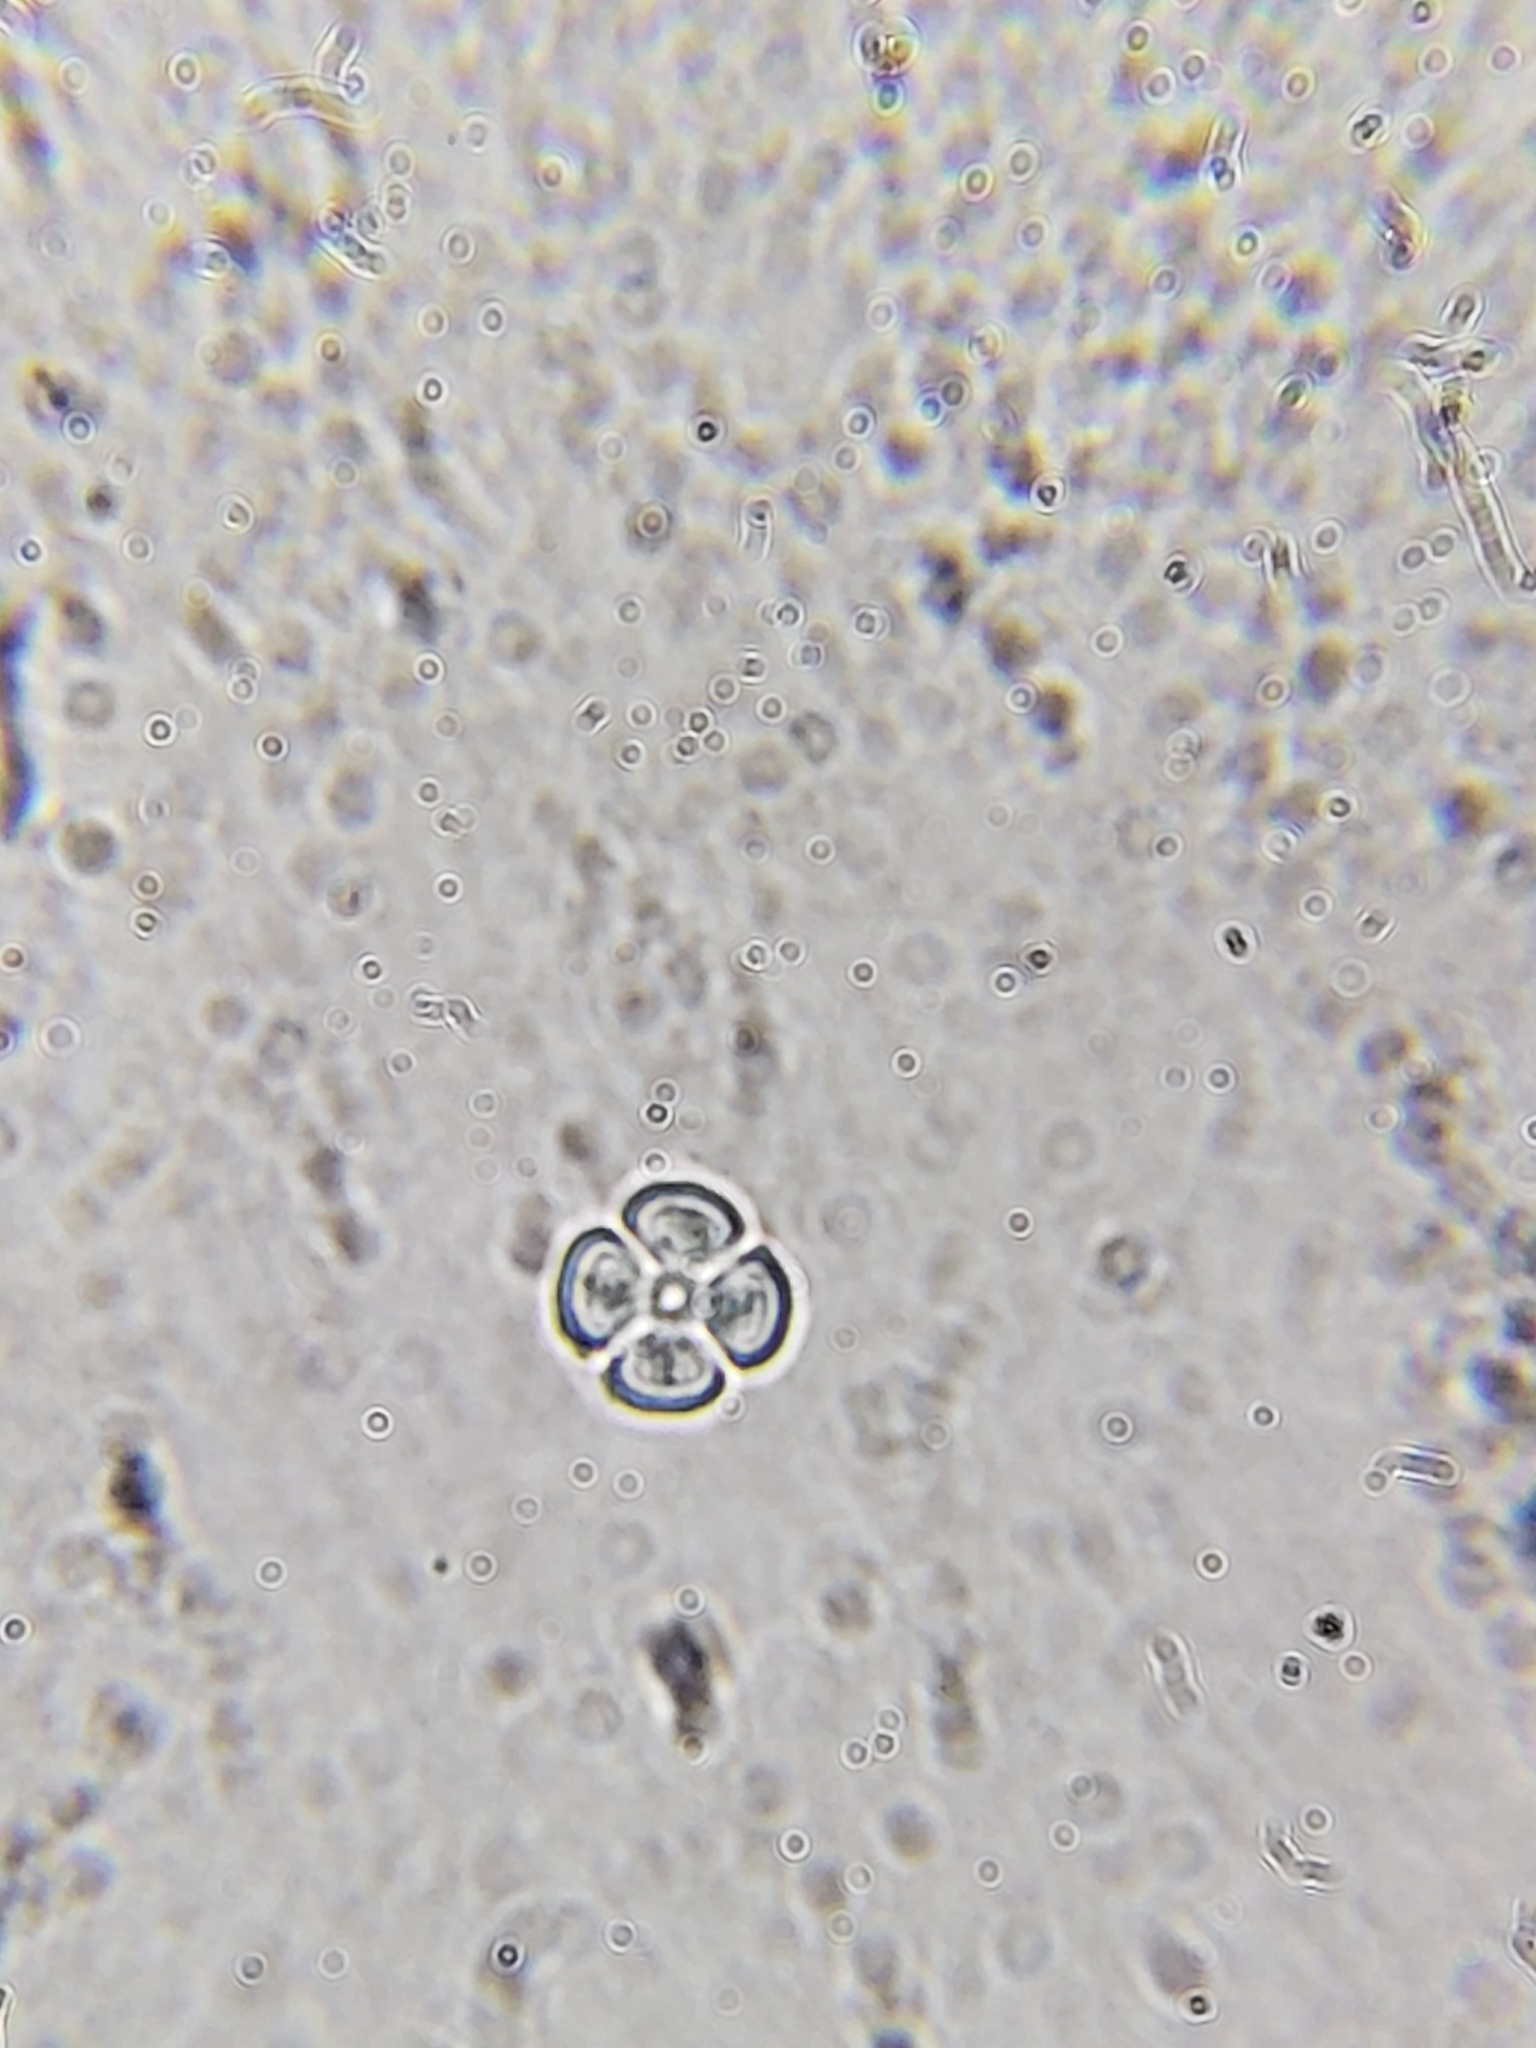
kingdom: Fungi
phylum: Basidiomycota
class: Agaricomycetes
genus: Riessia
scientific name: Riessia semiophora
